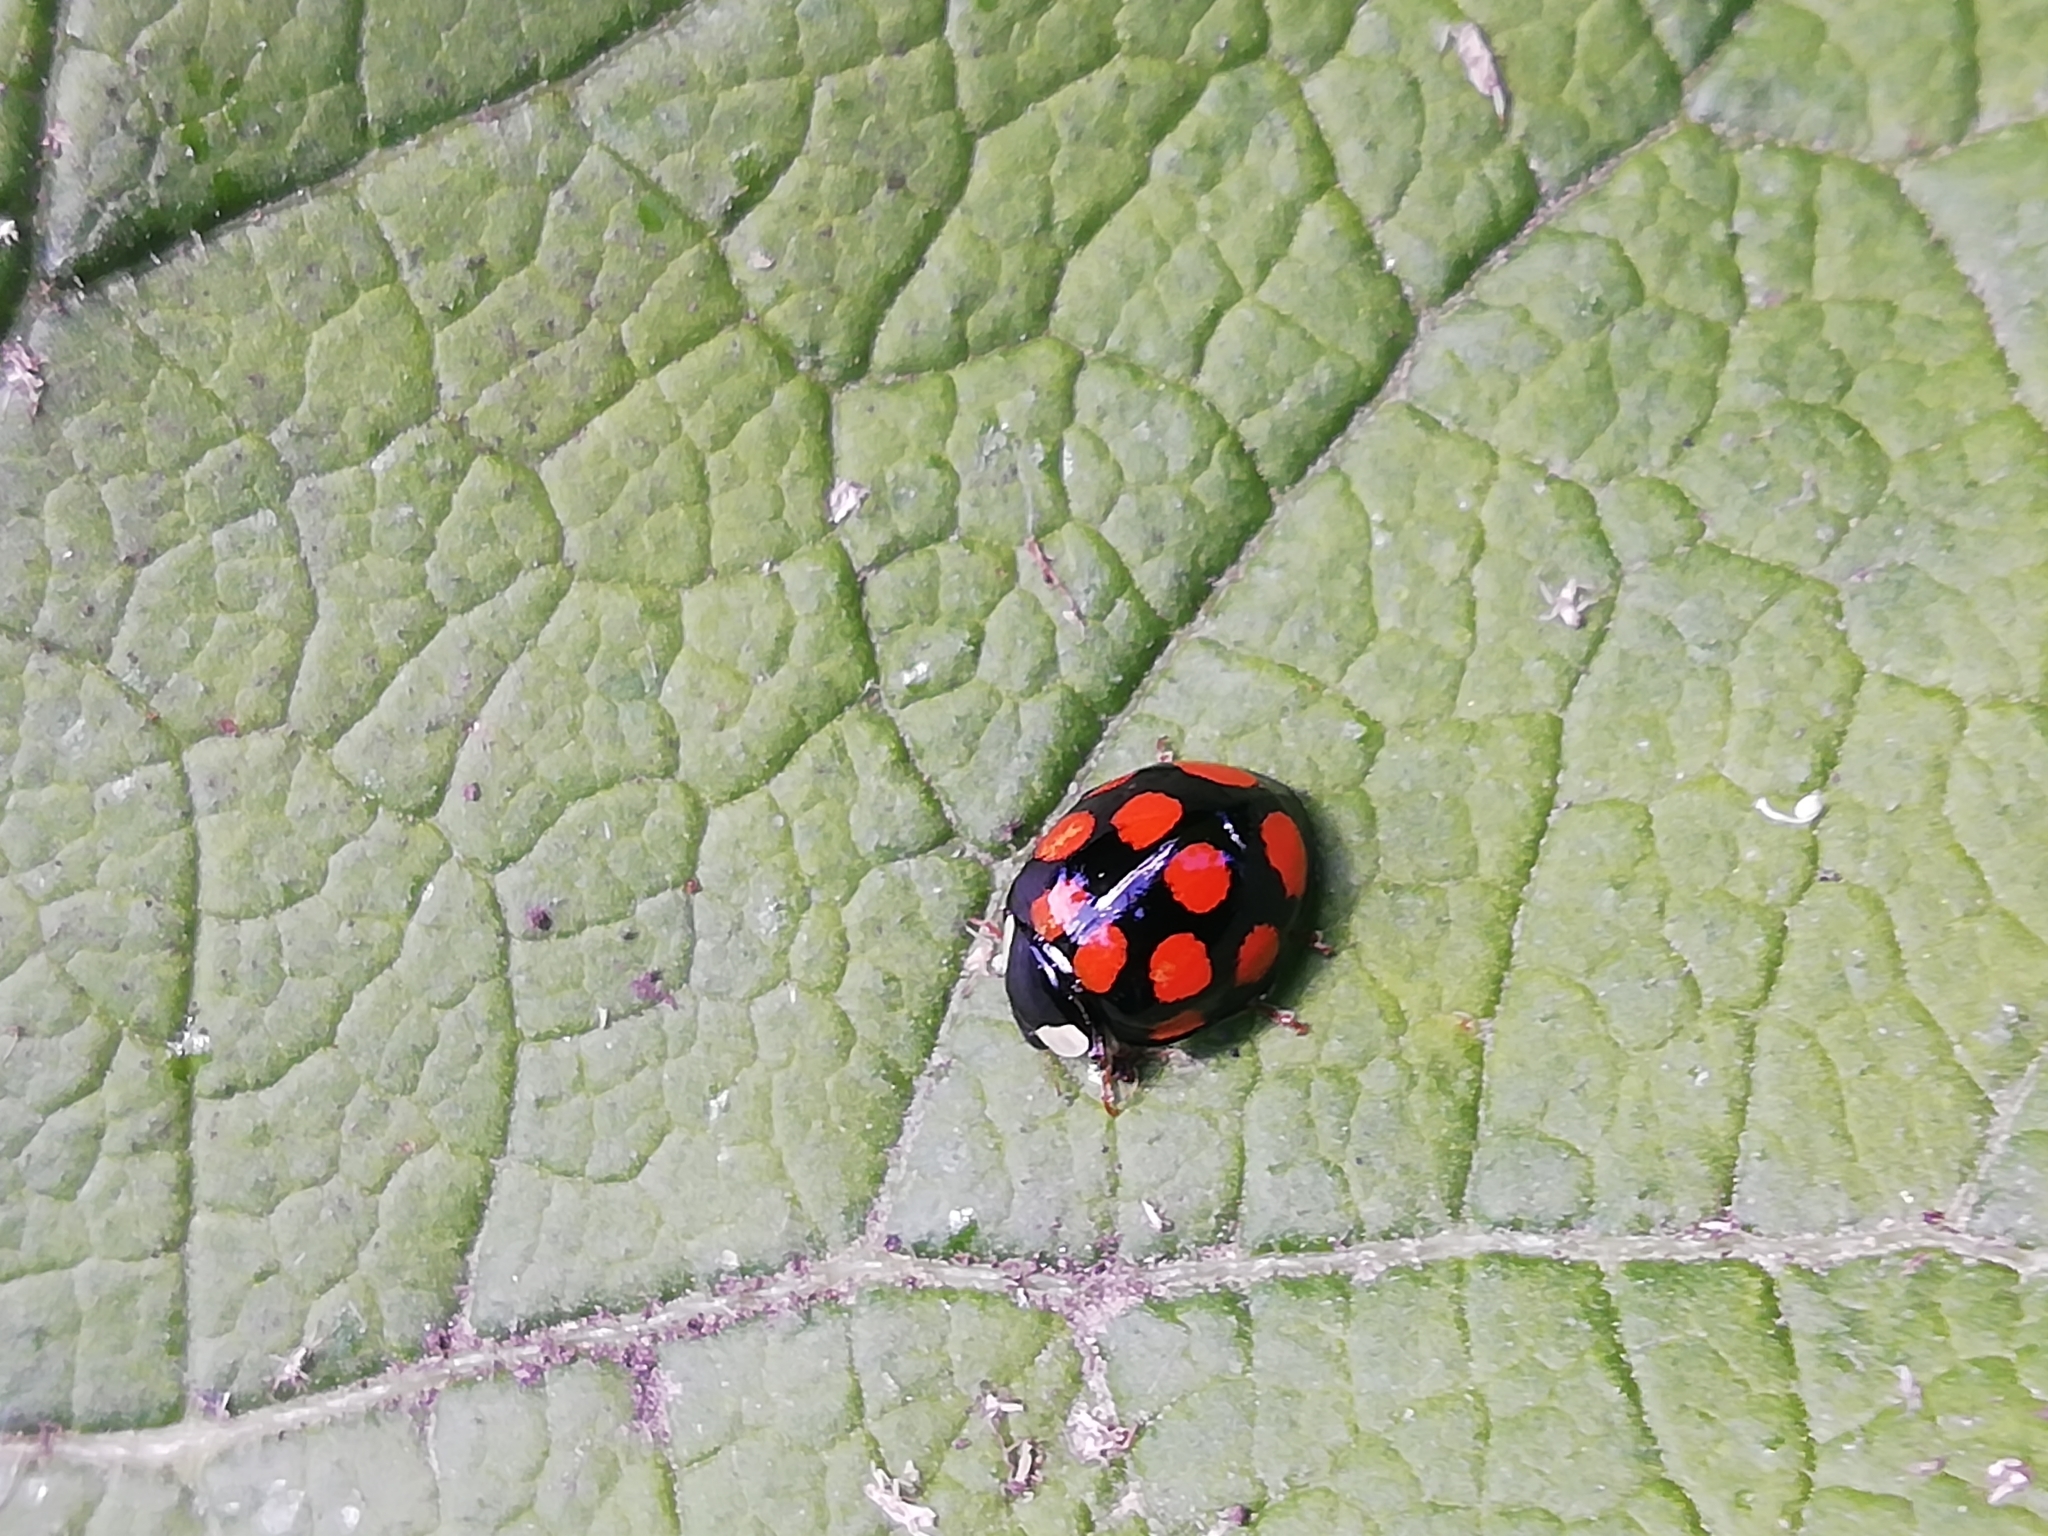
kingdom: Animalia
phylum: Arthropoda
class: Insecta
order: Coleoptera
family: Coccinellidae
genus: Harmonia
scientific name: Harmonia axyridis
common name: Harlequin ladybird
